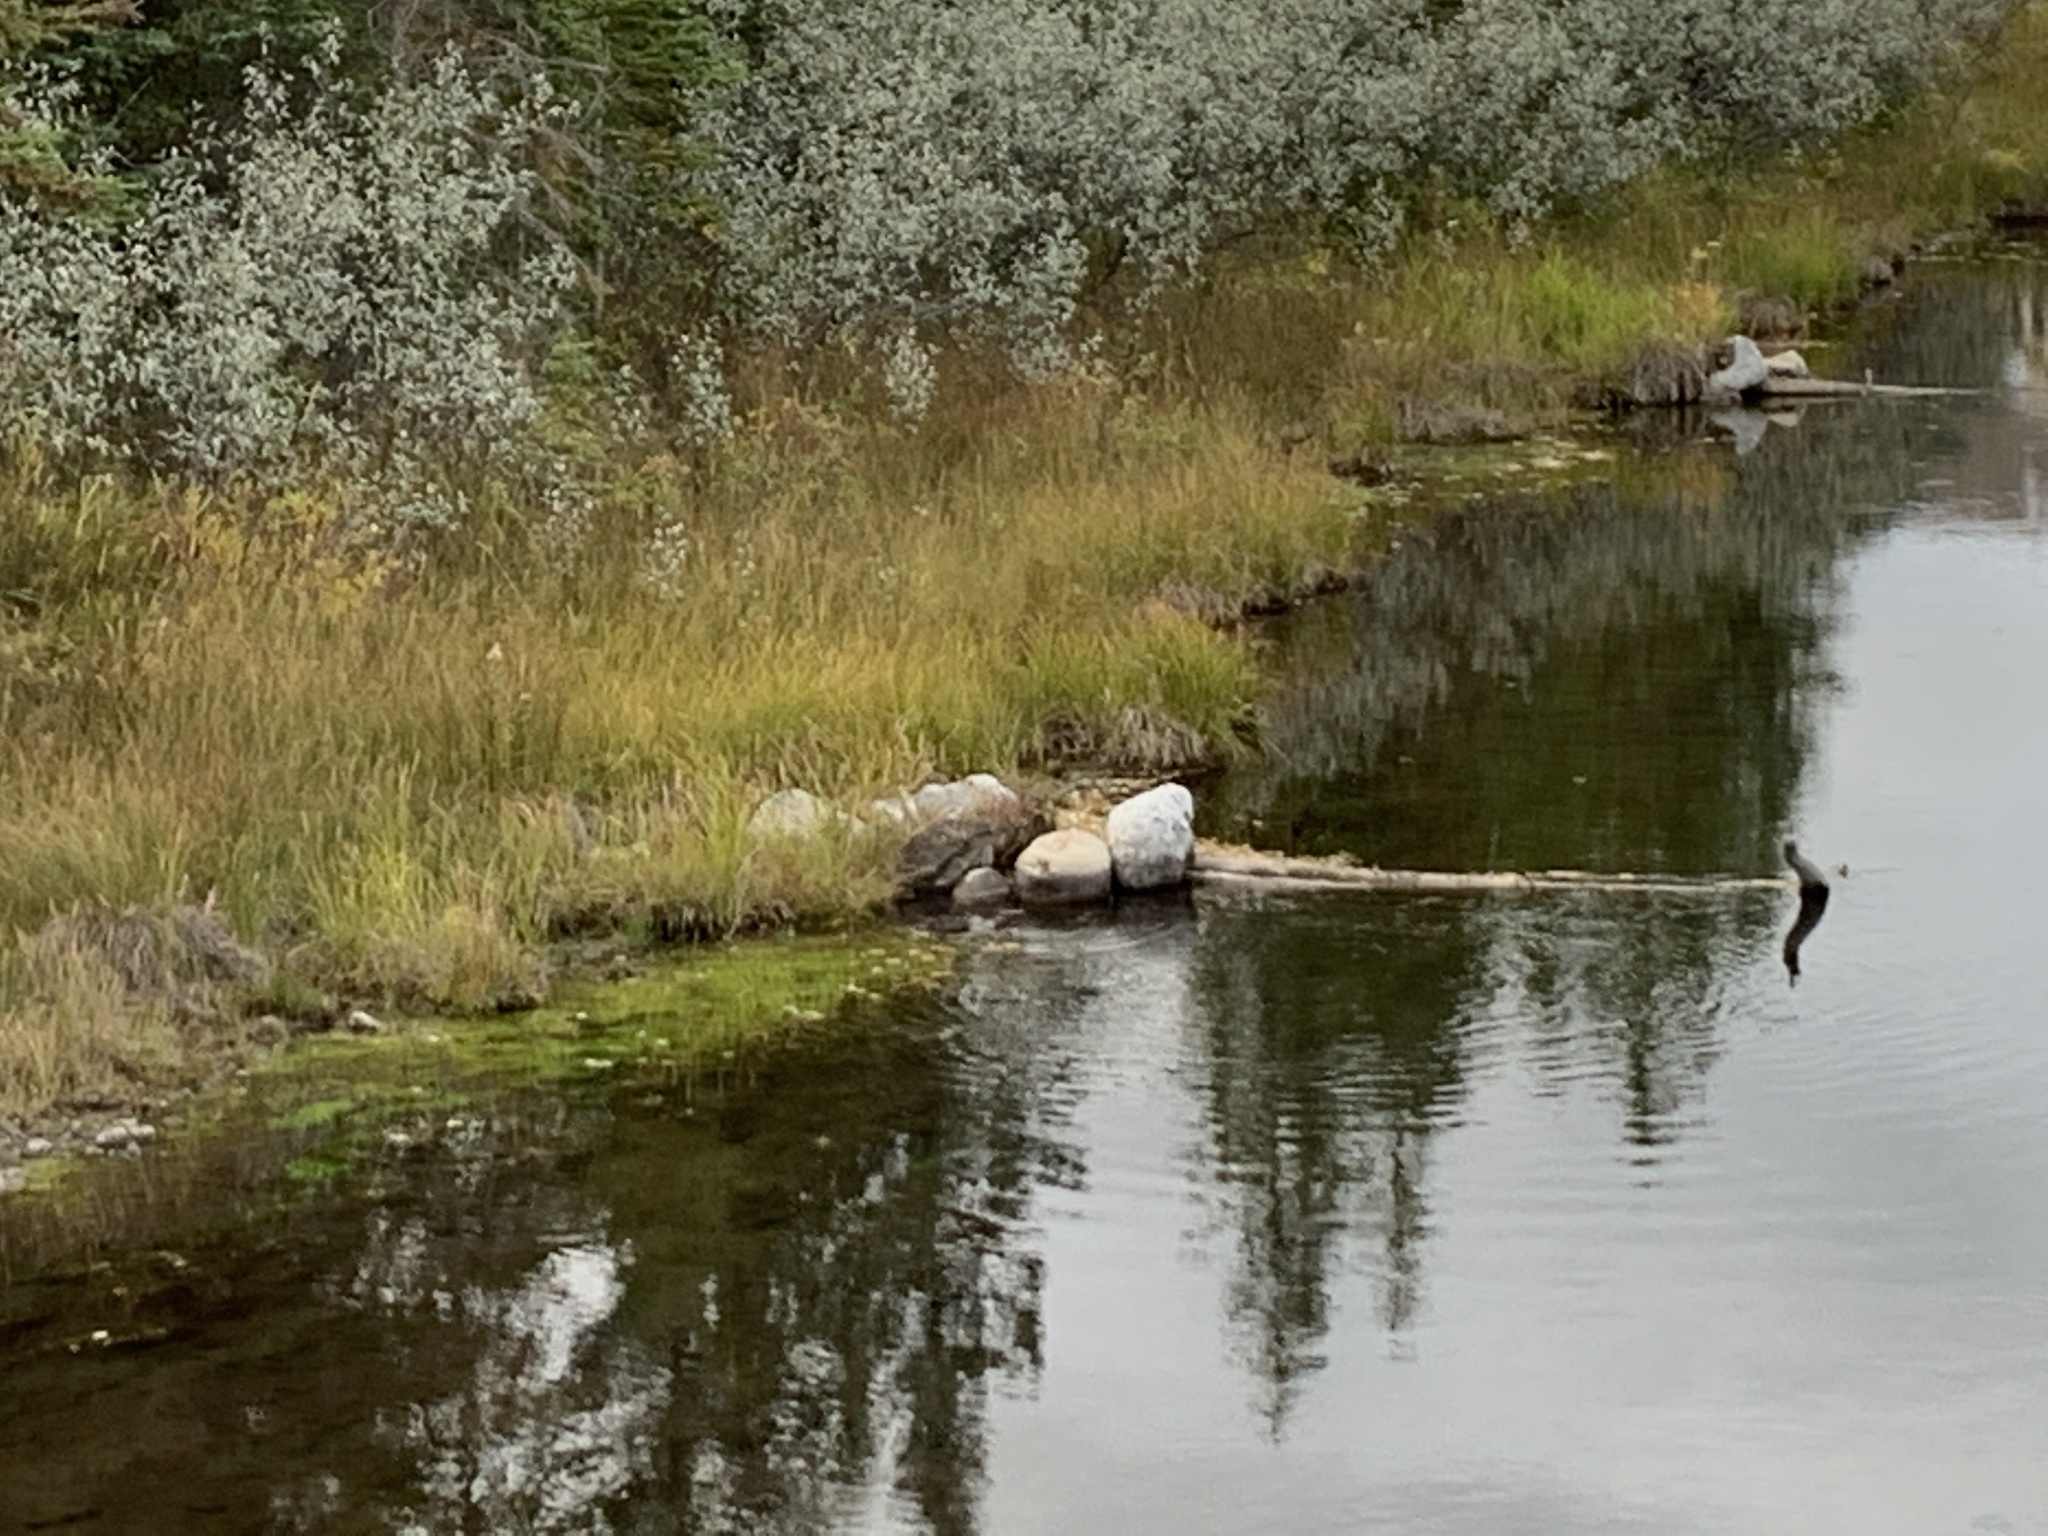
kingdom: Animalia
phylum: Chordata
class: Mammalia
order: Rodentia
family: Cricetidae
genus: Ondatra
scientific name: Ondatra zibethicus
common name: Muskrat
